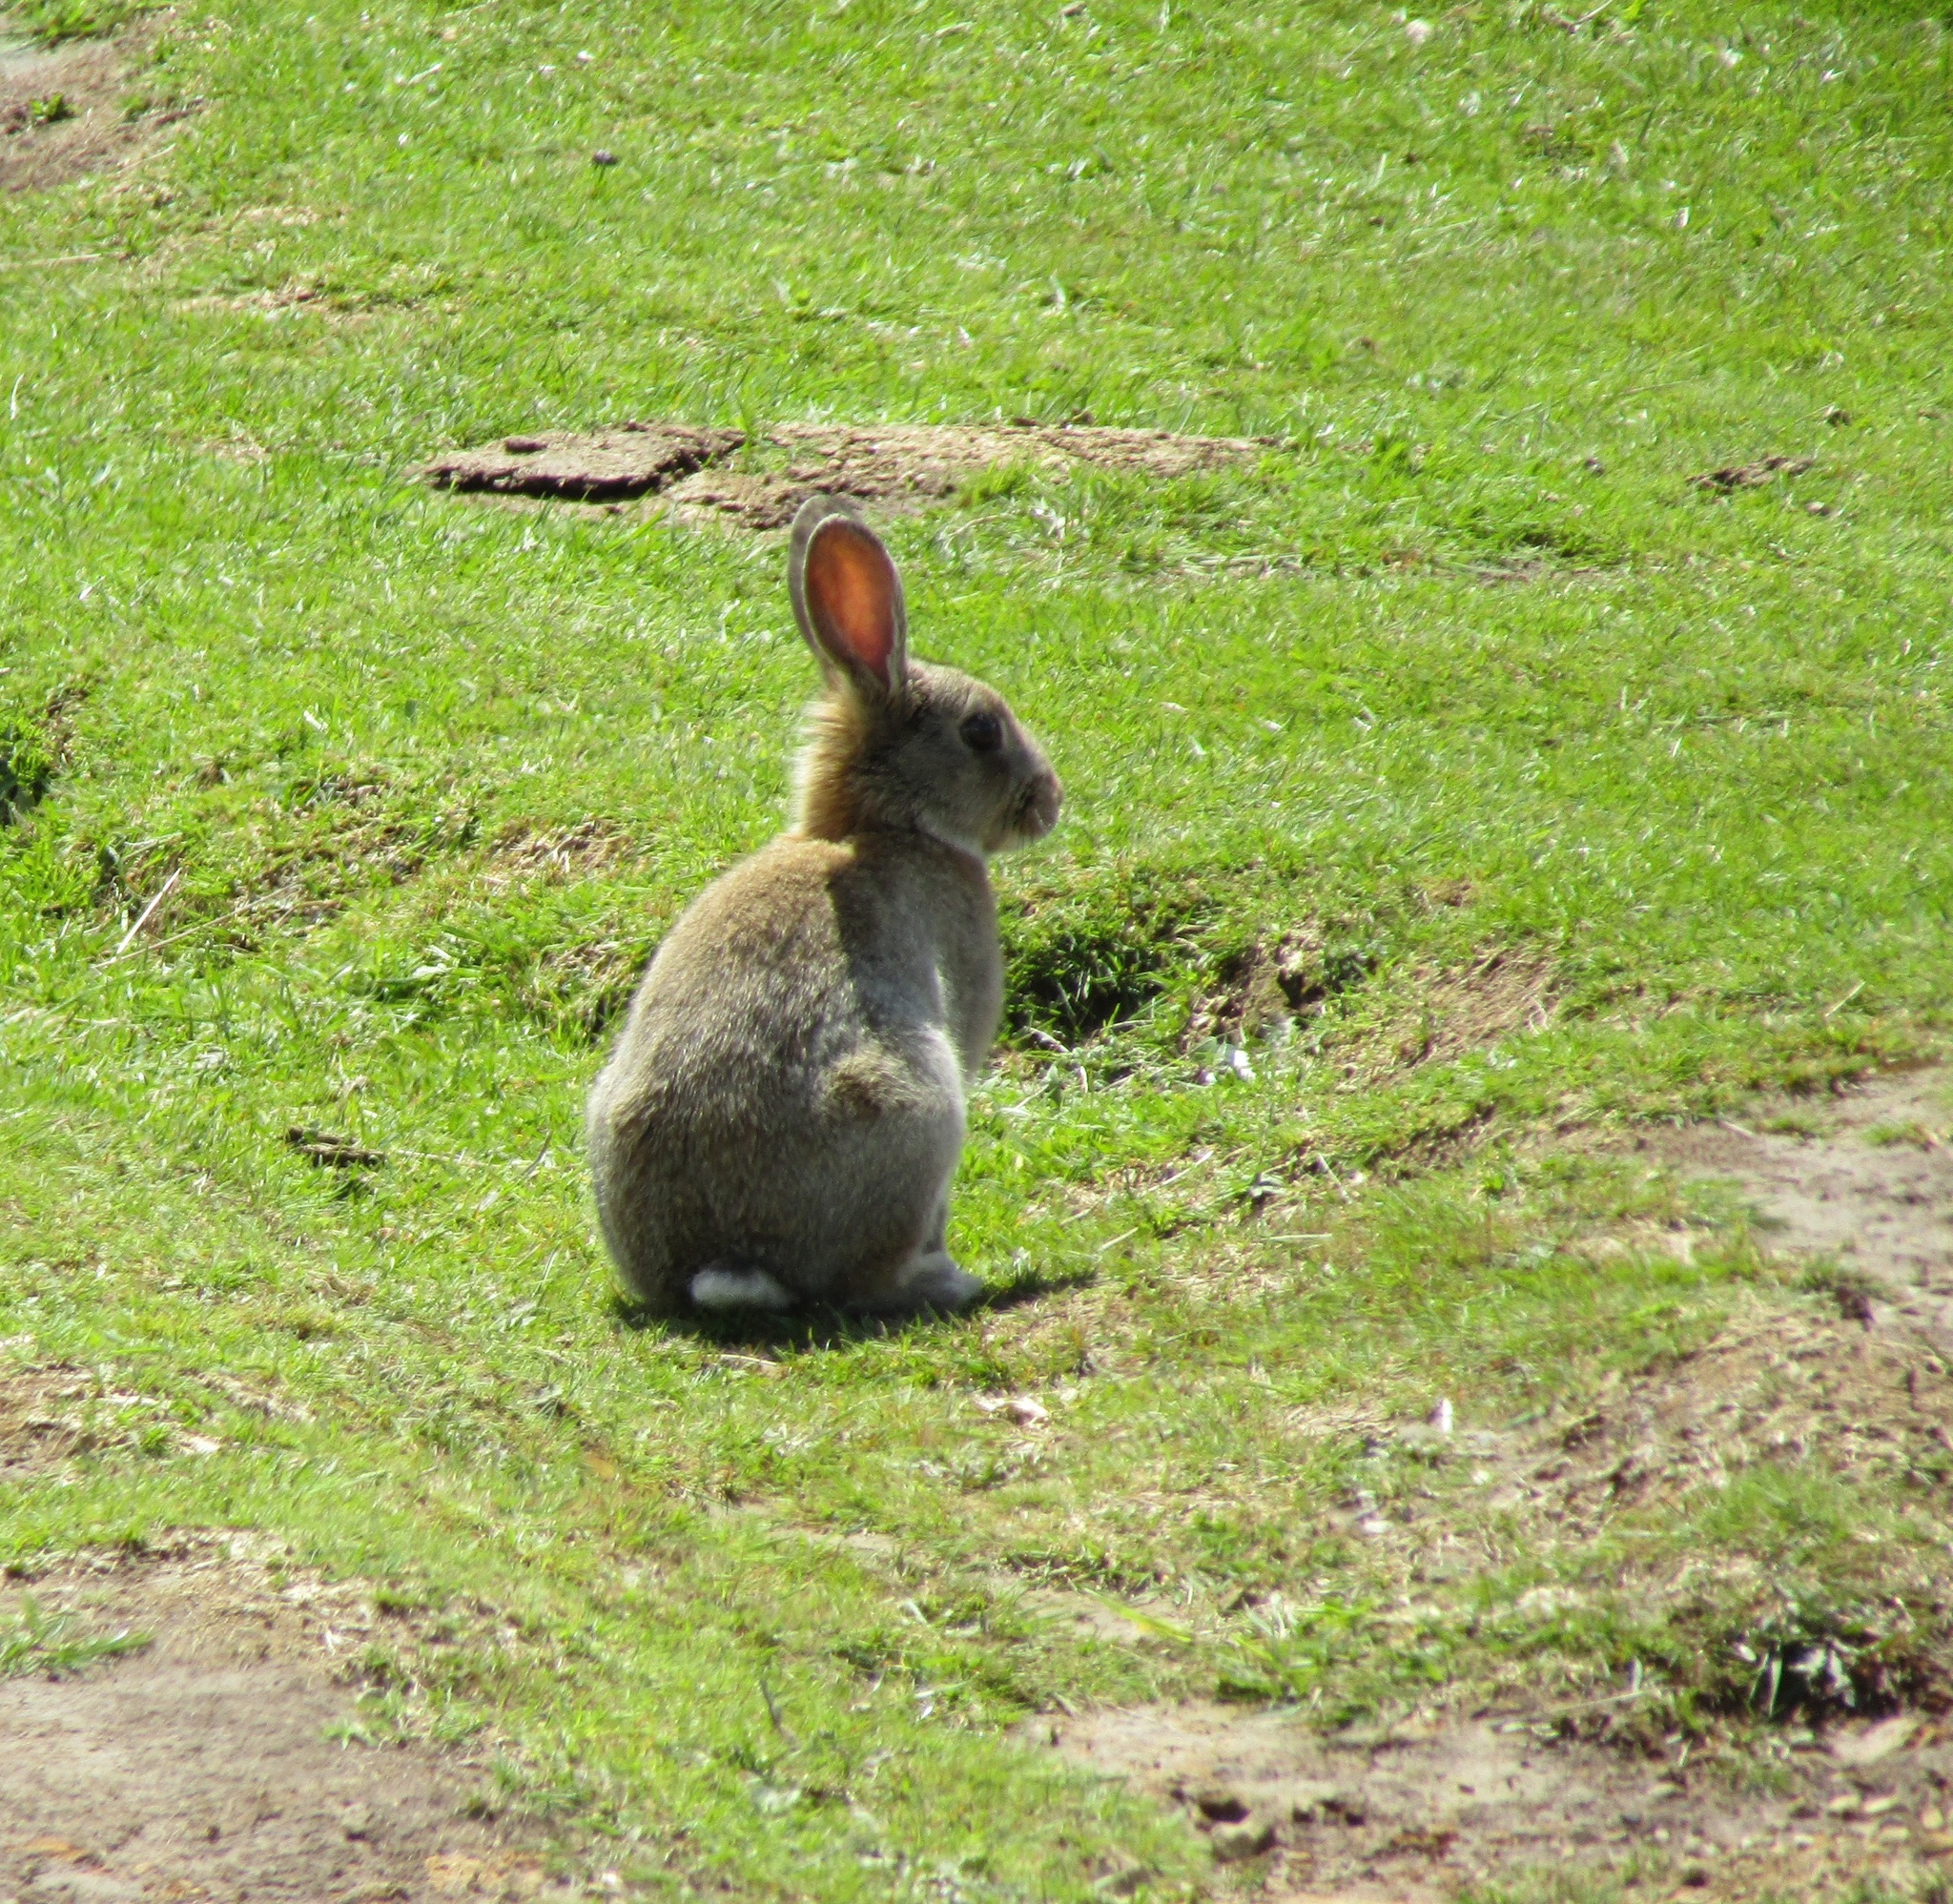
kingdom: Animalia
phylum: Chordata
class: Mammalia
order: Lagomorpha
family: Leporidae
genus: Oryctolagus
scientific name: Oryctolagus cuniculus
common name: European rabbit
